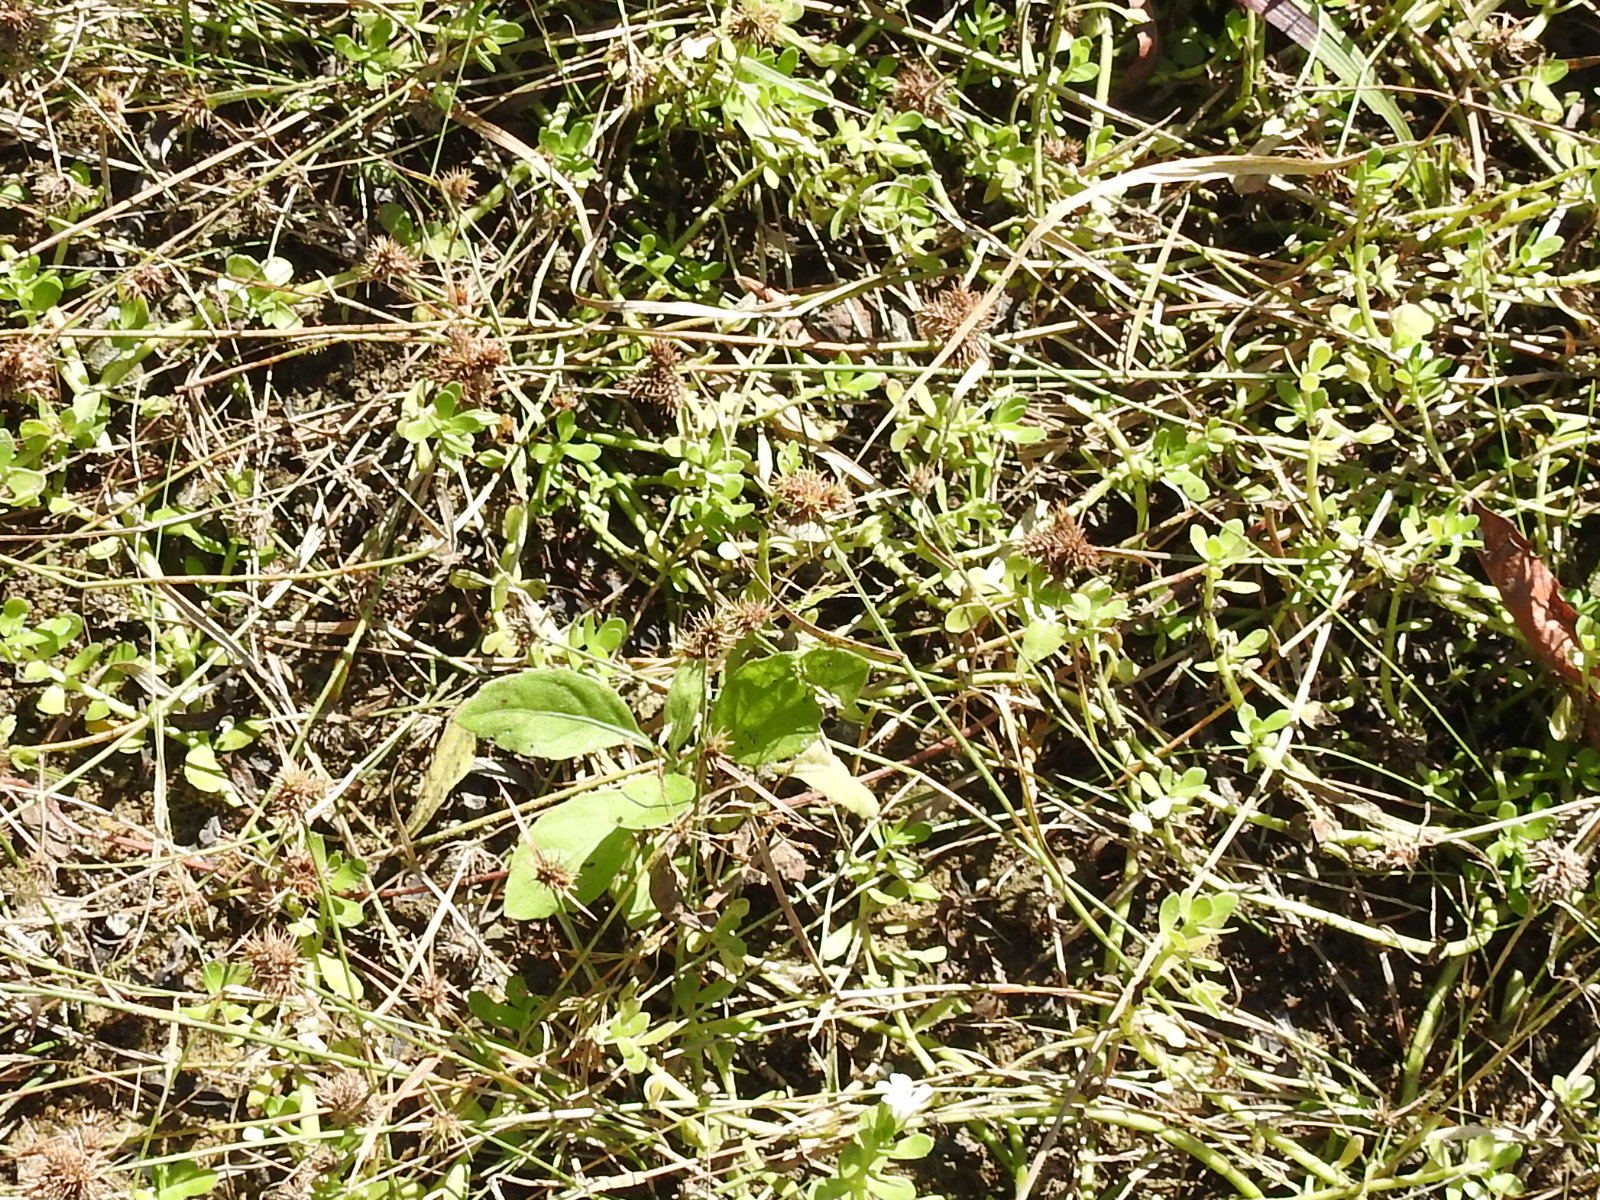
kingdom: Plantae
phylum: Tracheophyta
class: Liliopsida
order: Poales
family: Cyperaceae
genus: Fuirena
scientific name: Fuirena simplex
